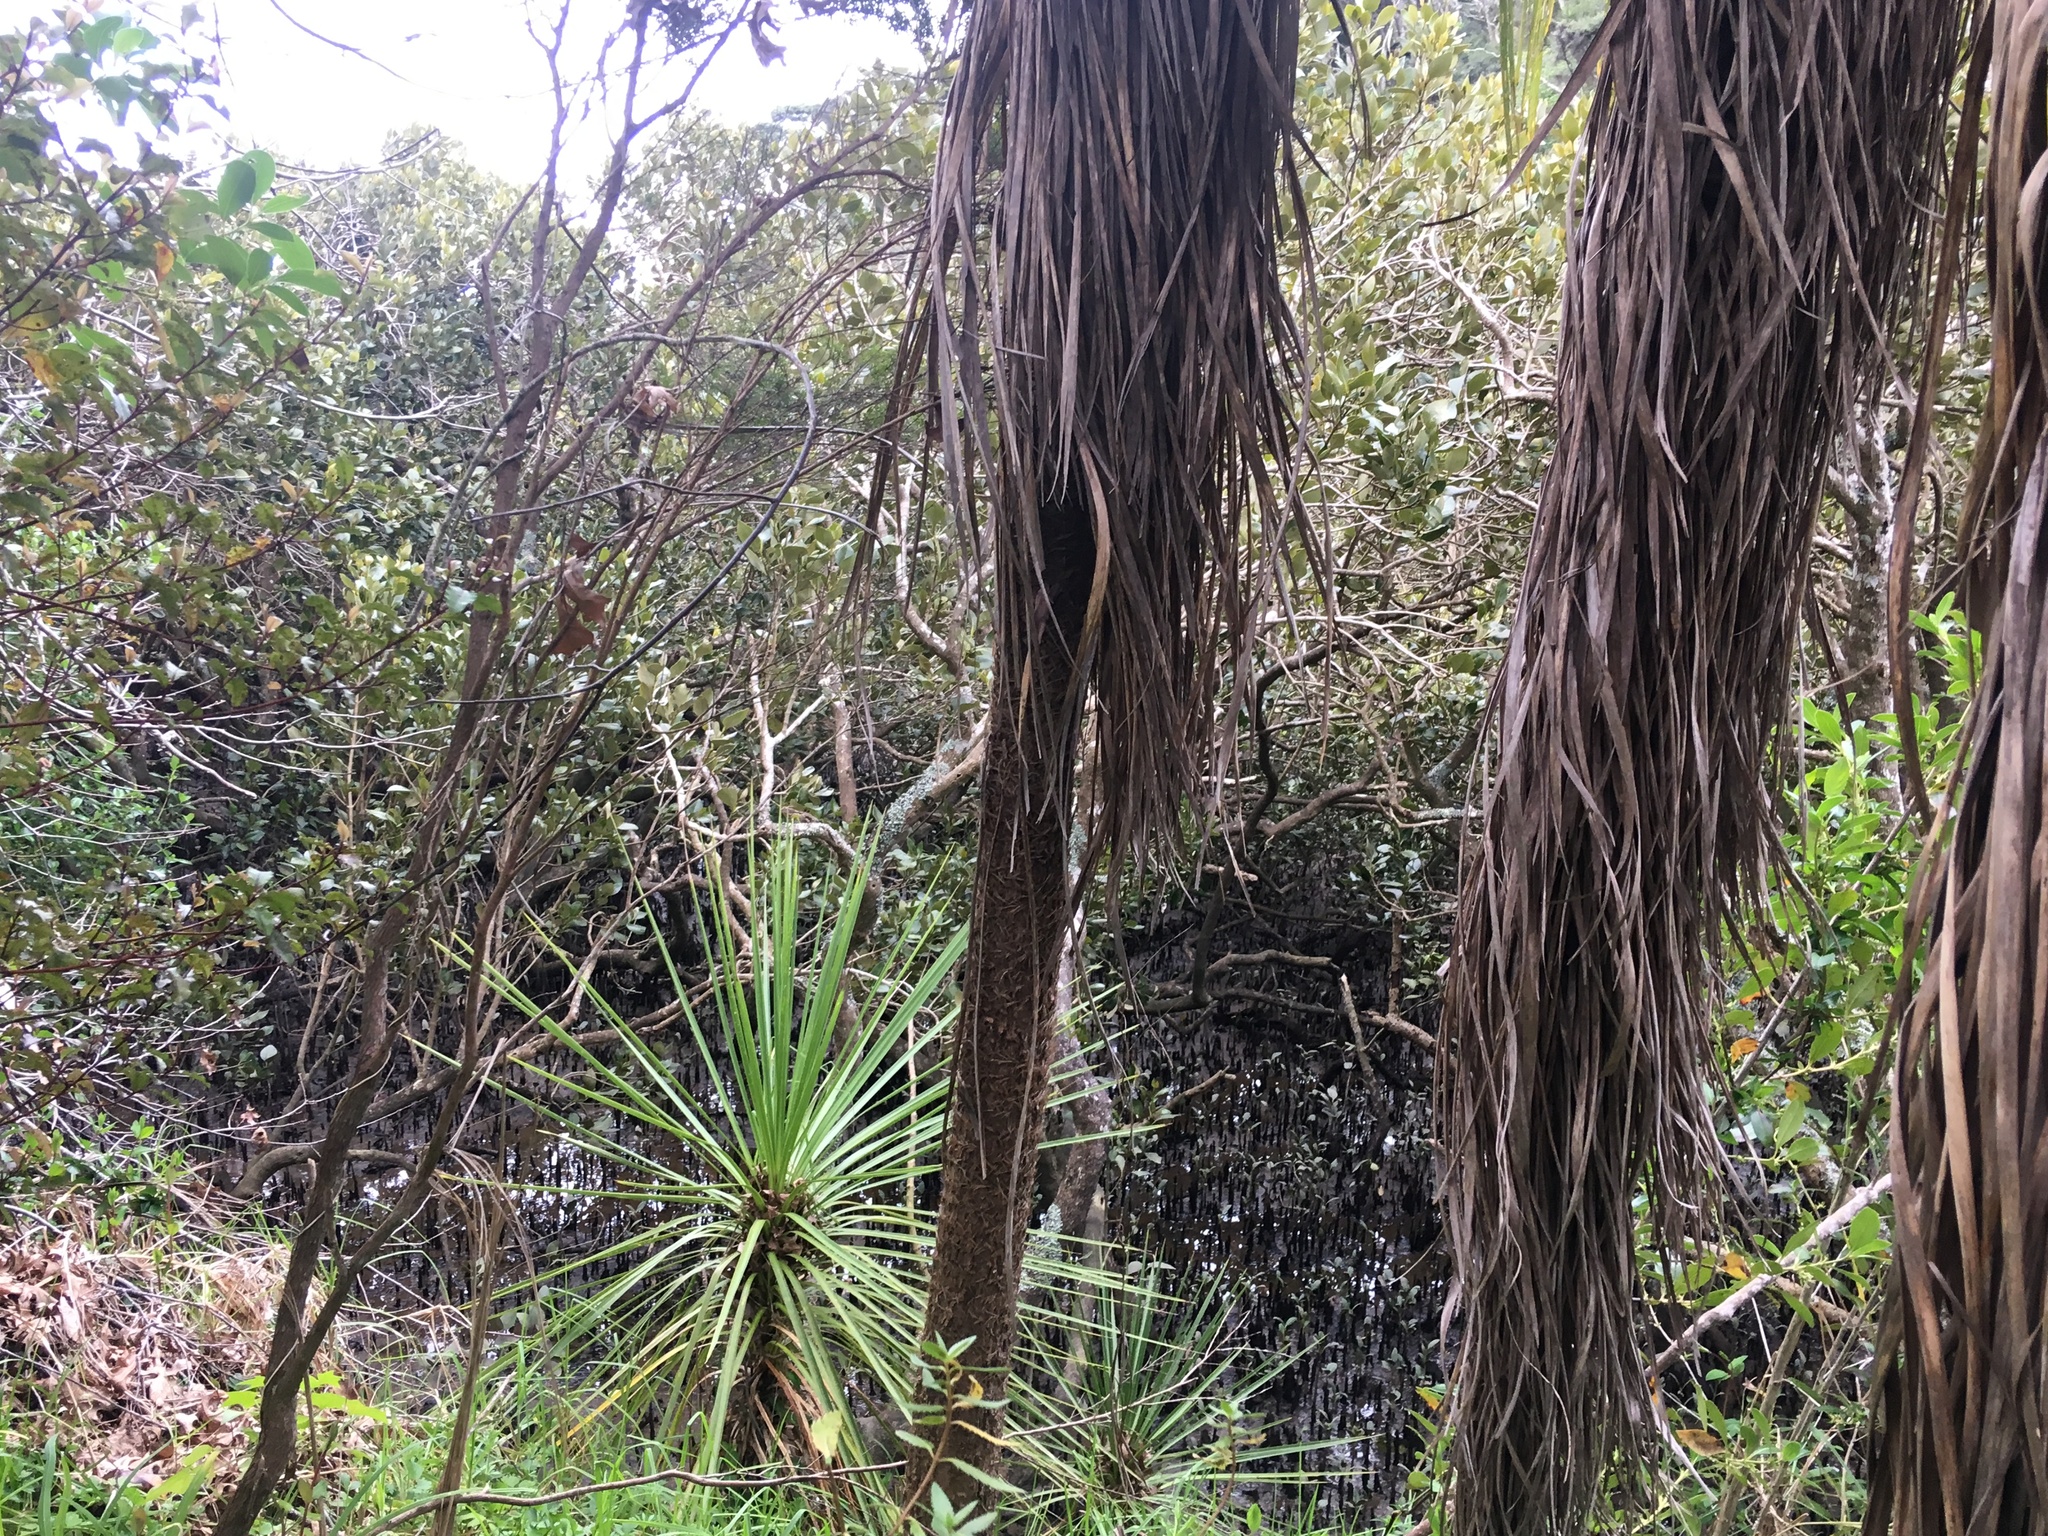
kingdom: Plantae
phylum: Tracheophyta
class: Liliopsida
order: Asparagales
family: Asparagaceae
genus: Cordyline
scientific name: Cordyline australis
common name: Cabbage-palm
